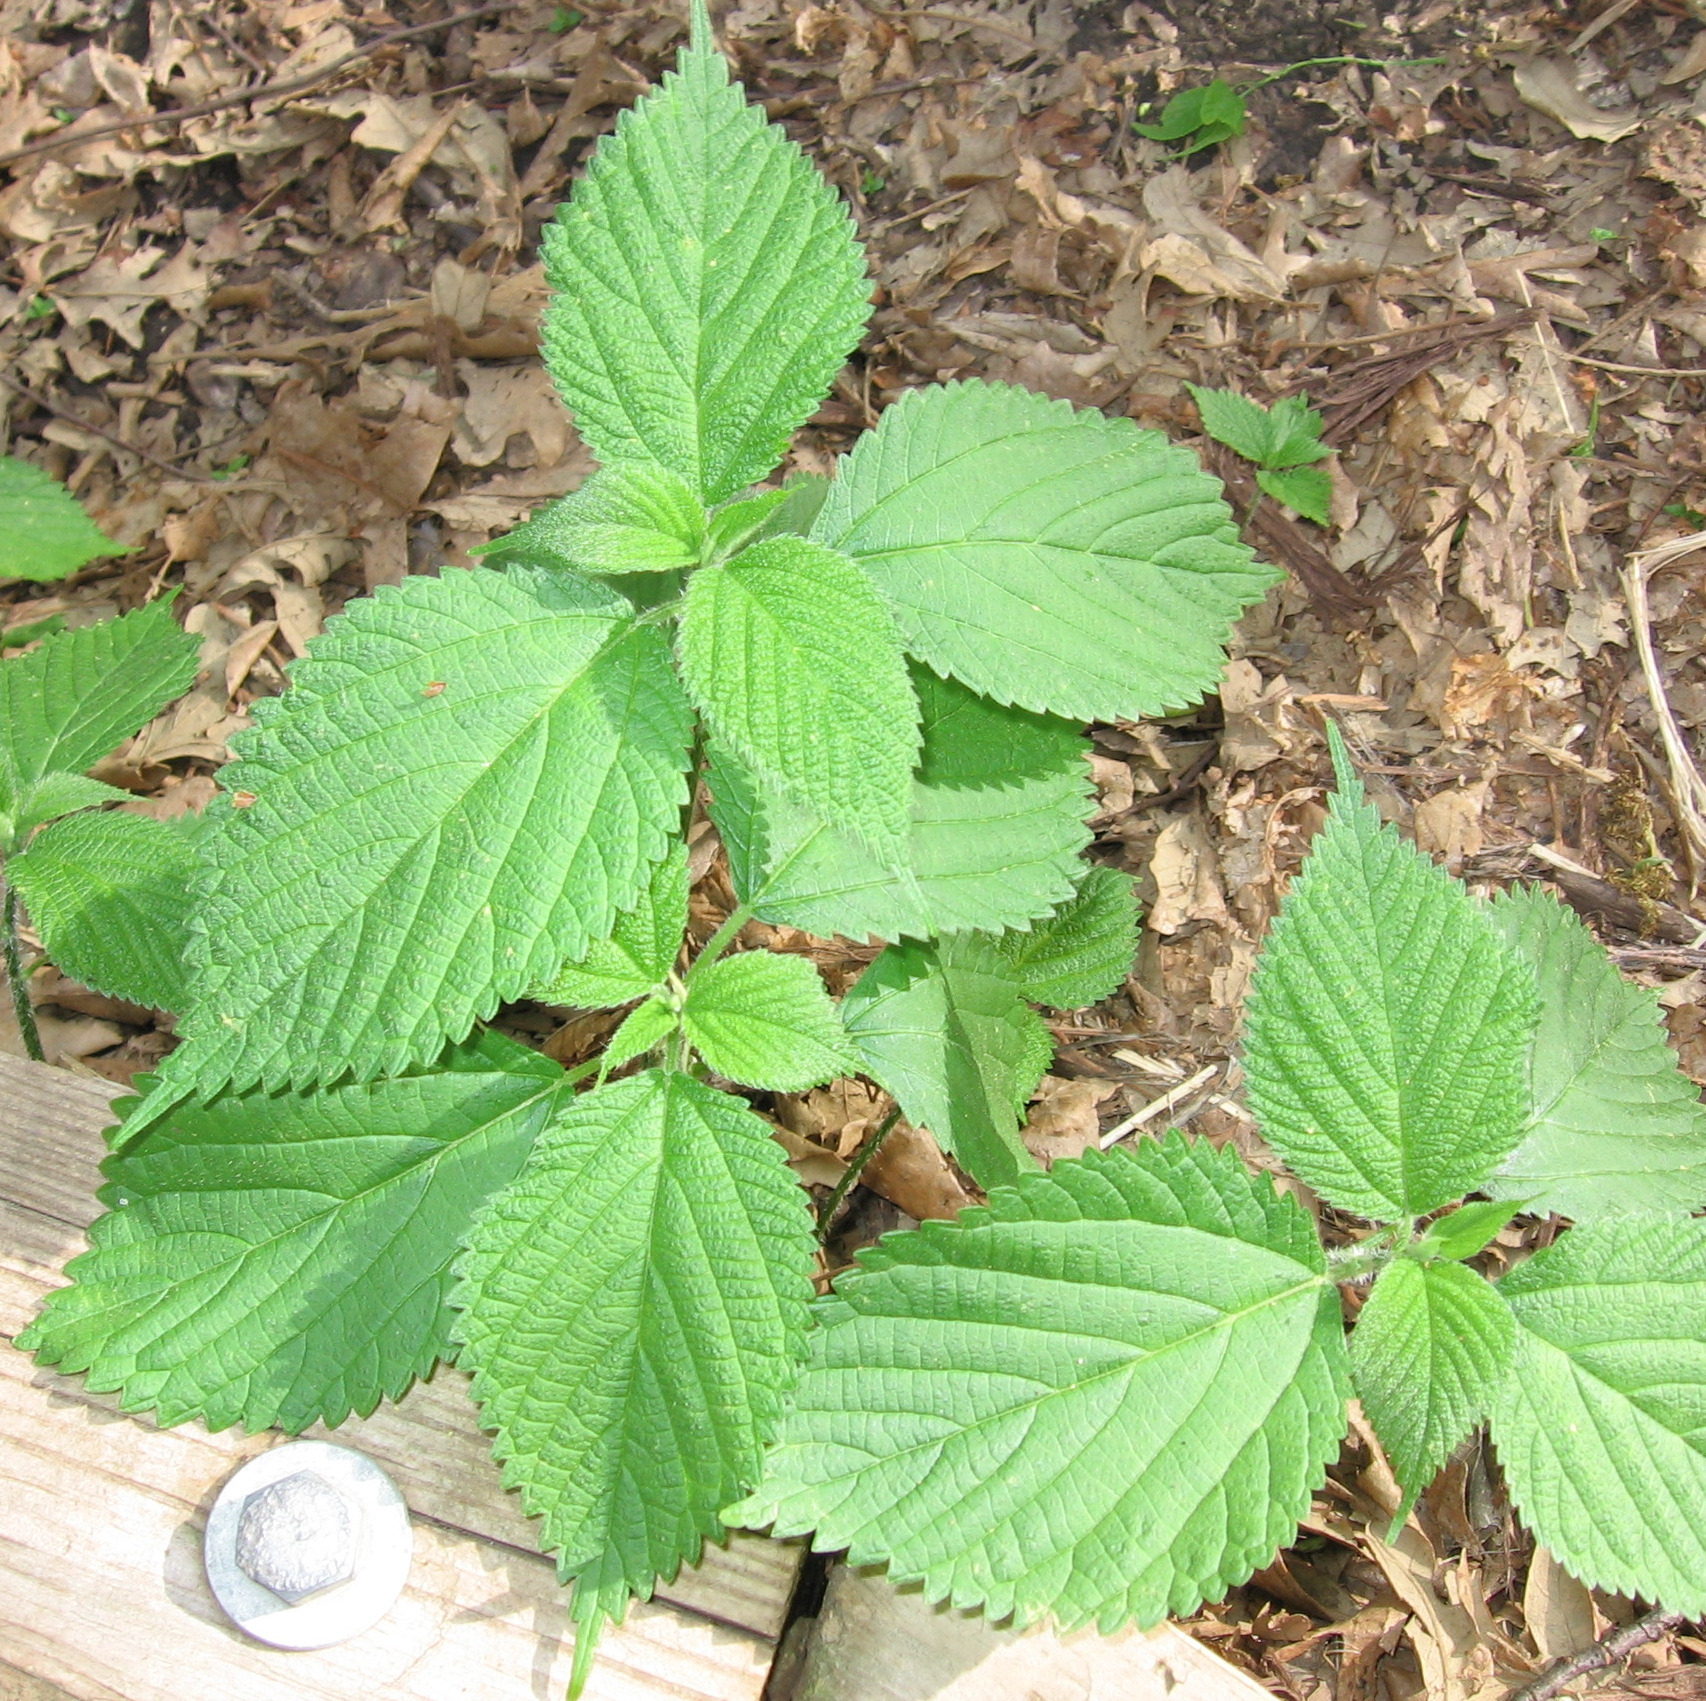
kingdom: Plantae
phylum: Tracheophyta
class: Magnoliopsida
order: Rosales
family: Urticaceae
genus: Laportea
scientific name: Laportea canadensis
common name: Canada nettle
